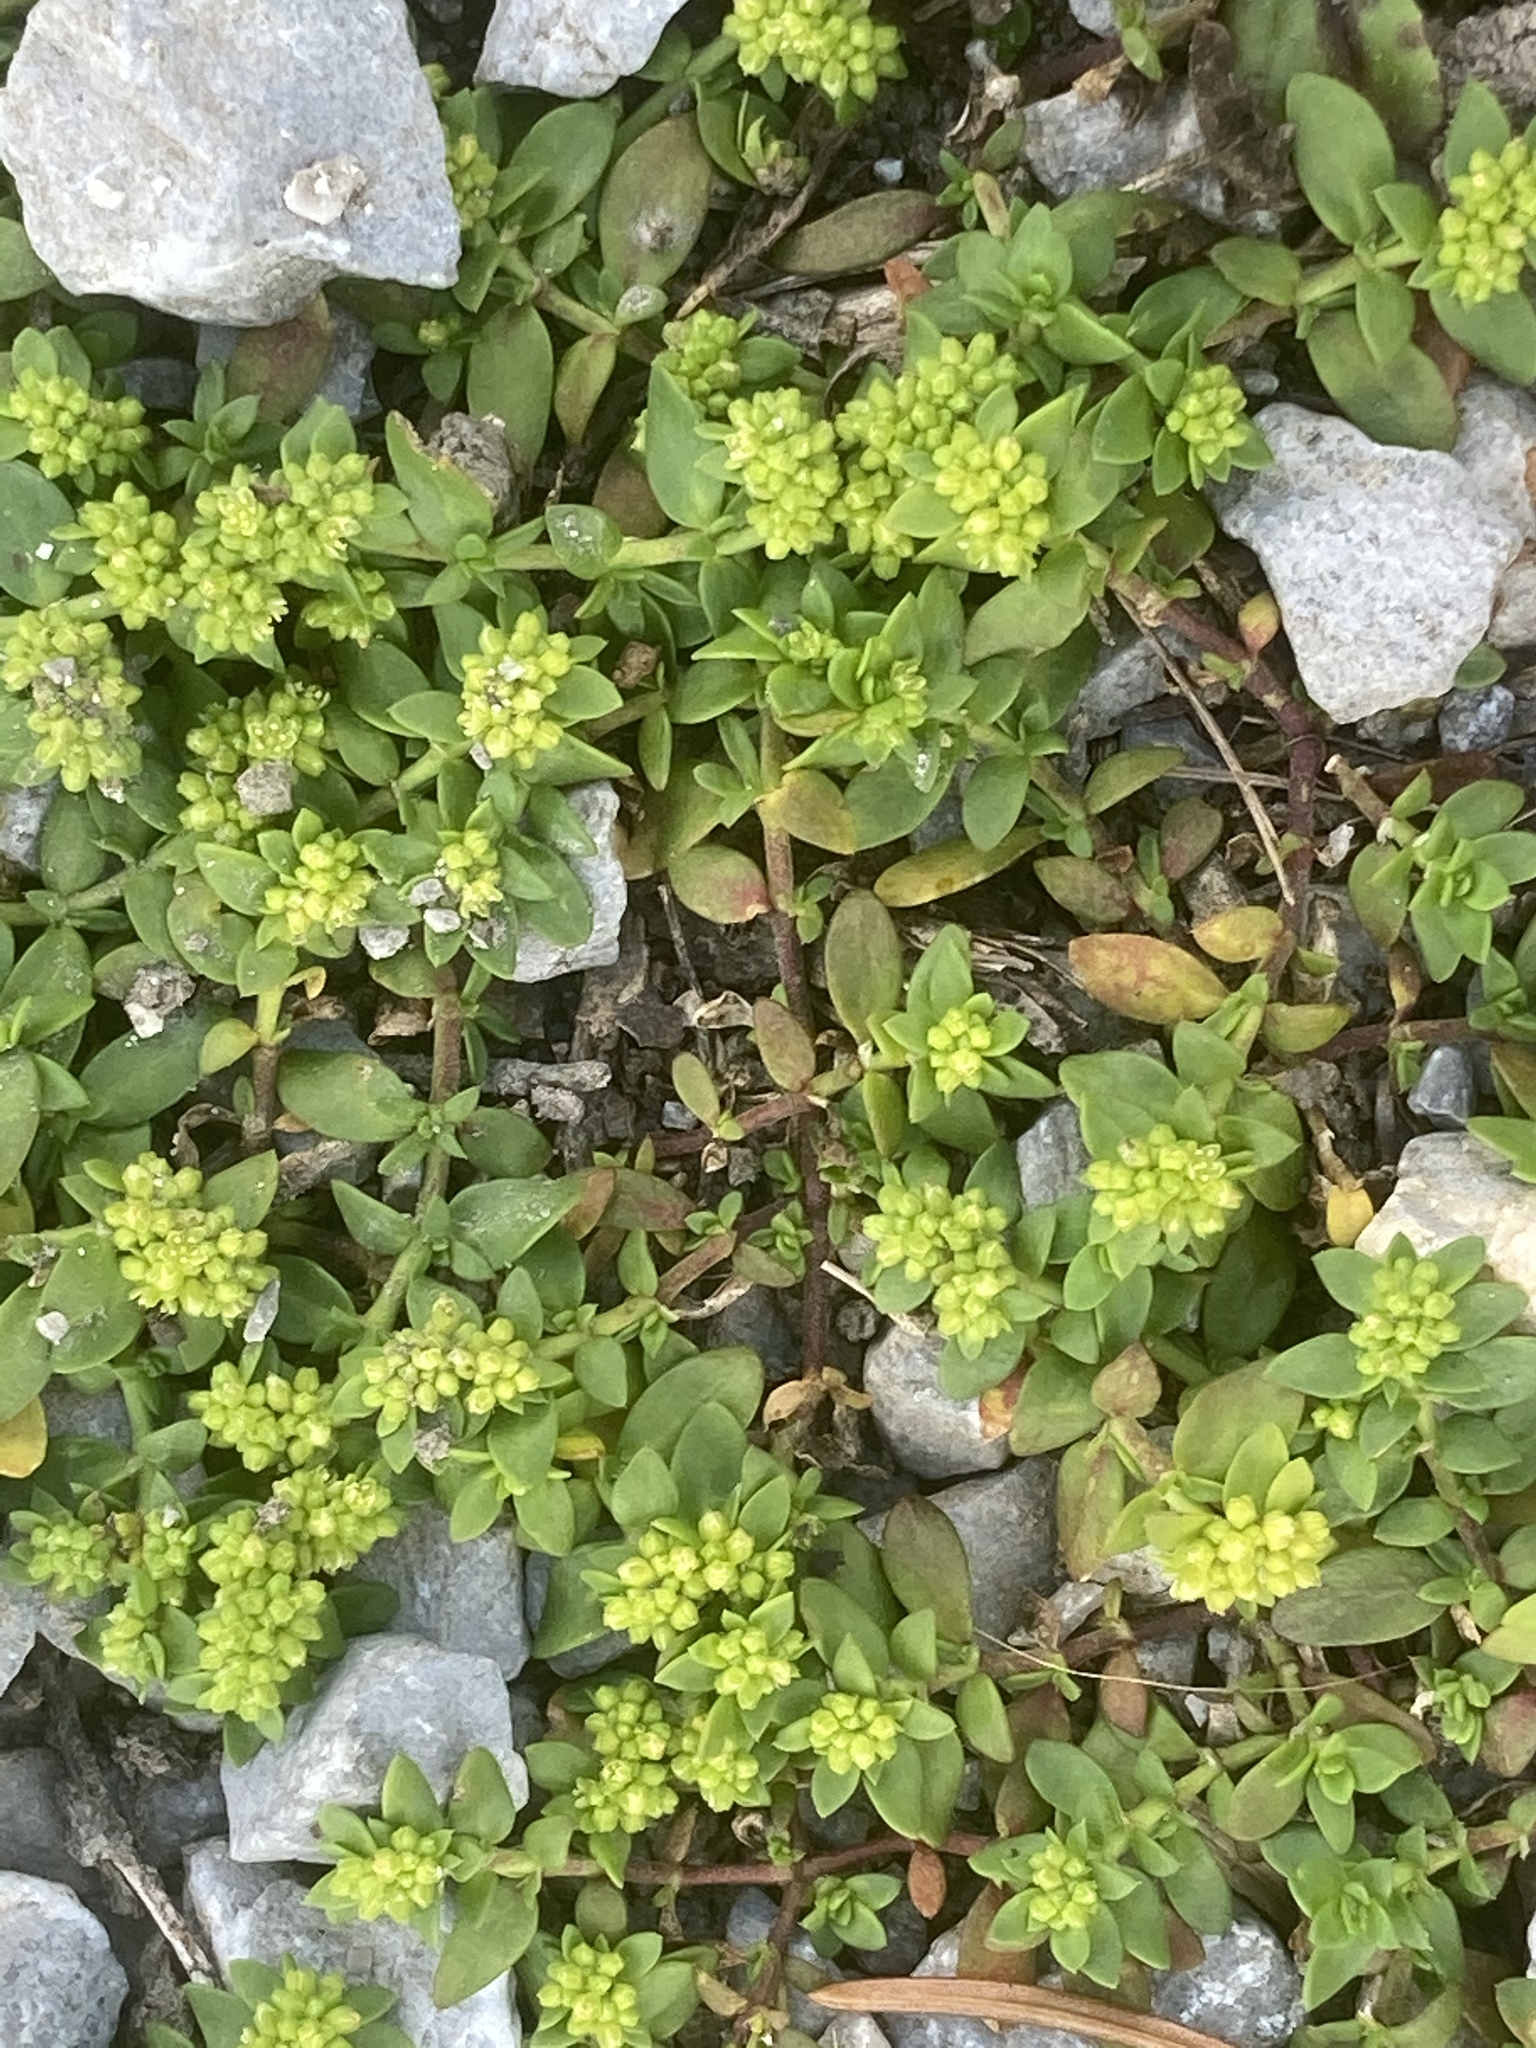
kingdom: Plantae
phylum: Tracheophyta
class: Magnoliopsida
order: Caryophyllales
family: Caryophyllaceae
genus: Herniaria
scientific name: Herniaria glabra
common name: Smooth rupturewort
